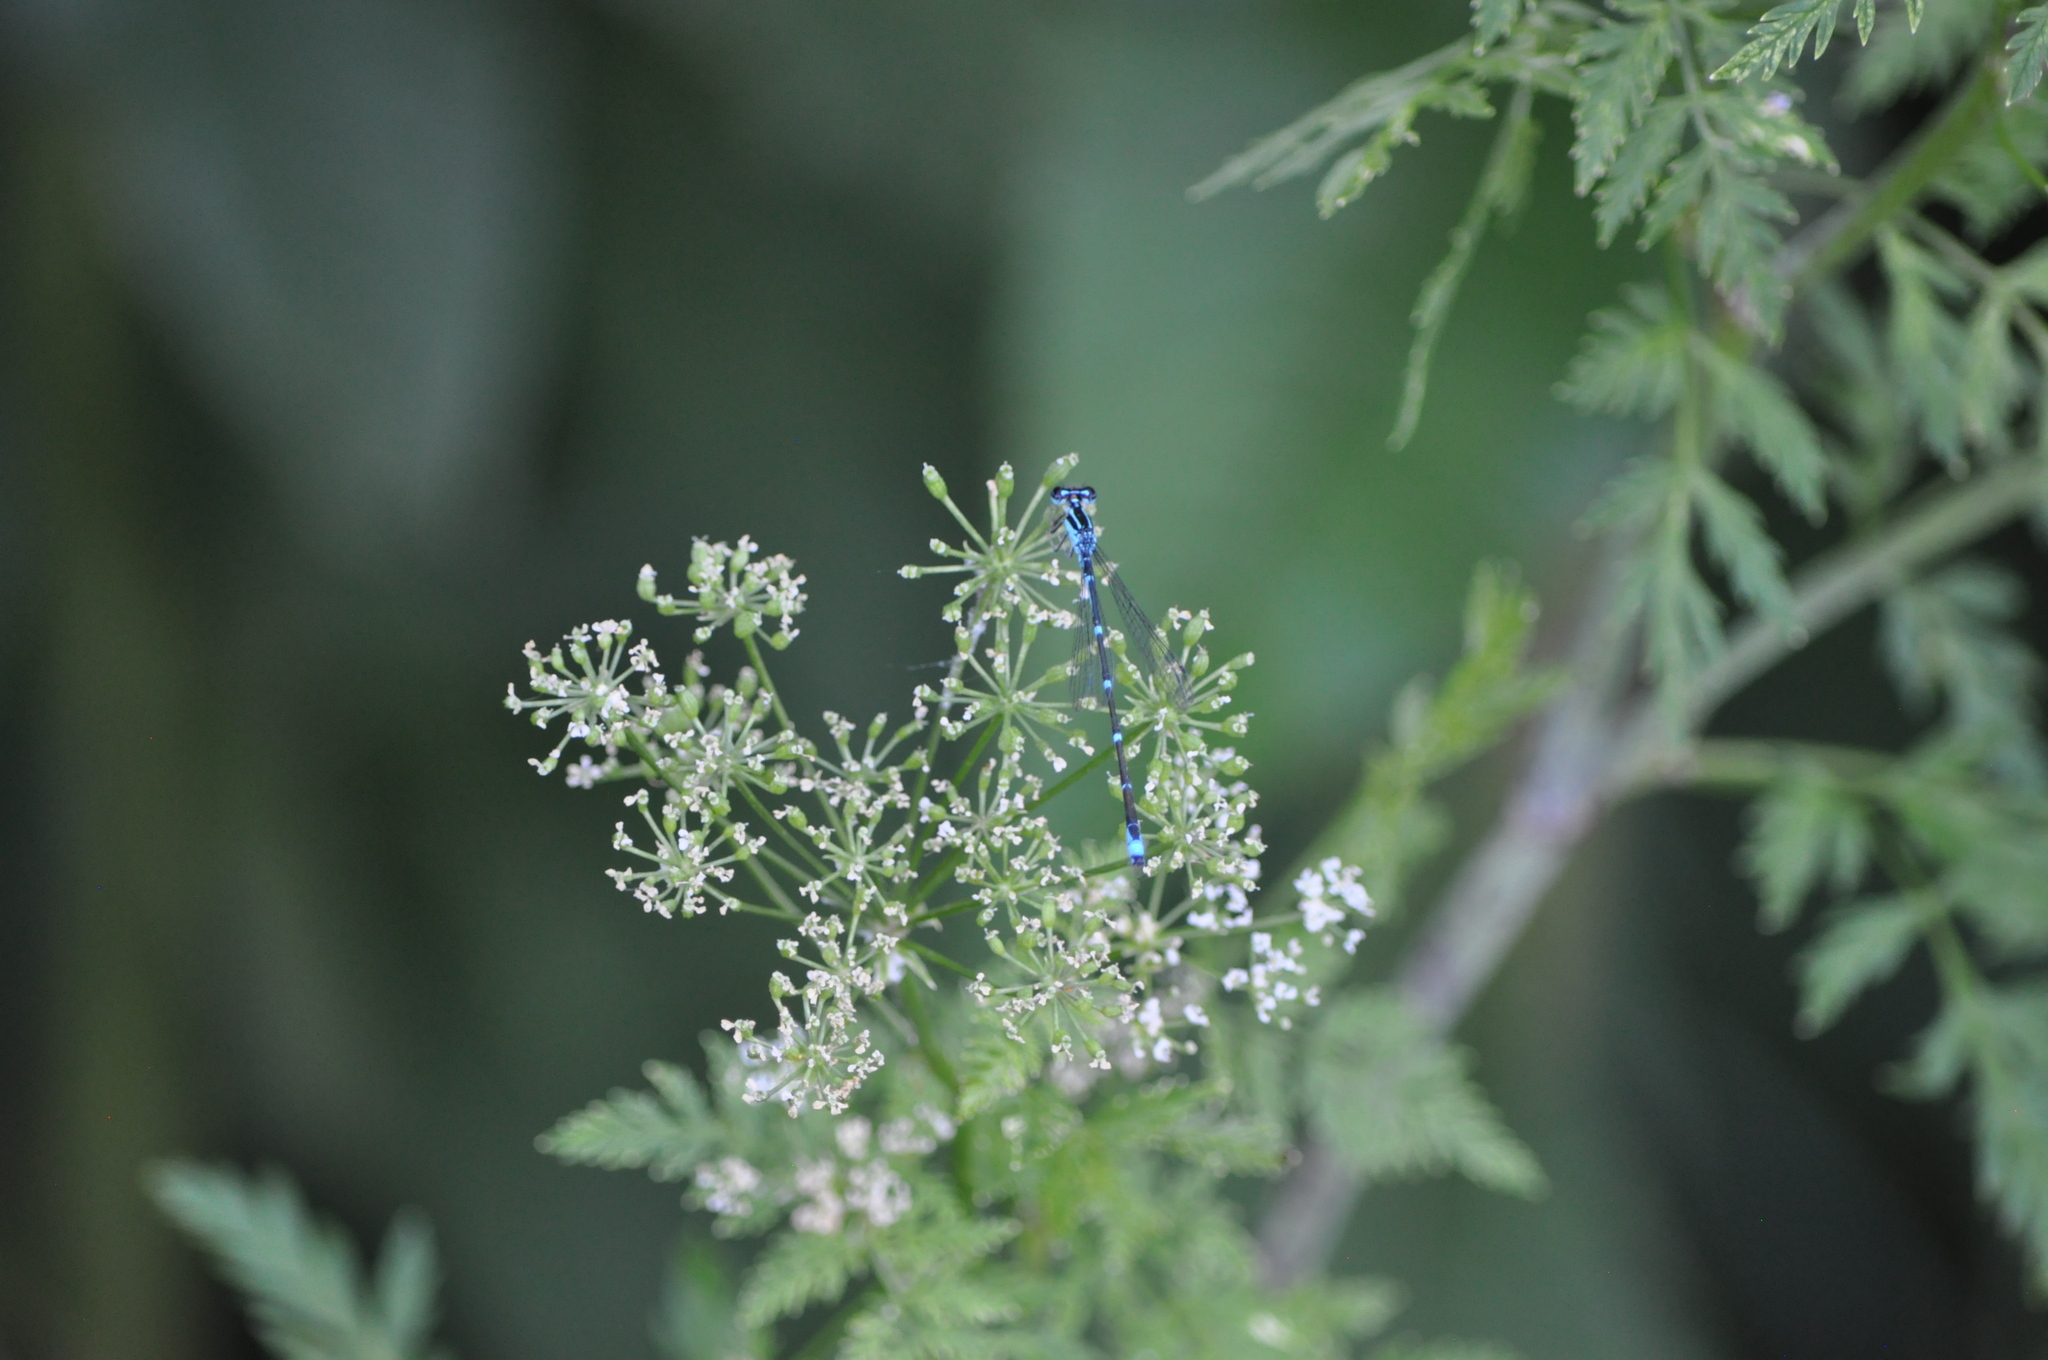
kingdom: Animalia
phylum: Arthropoda
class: Insecta
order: Odonata
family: Coenagrionidae
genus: Enallagma
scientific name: Enallagma exsulans
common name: Stream bluet
